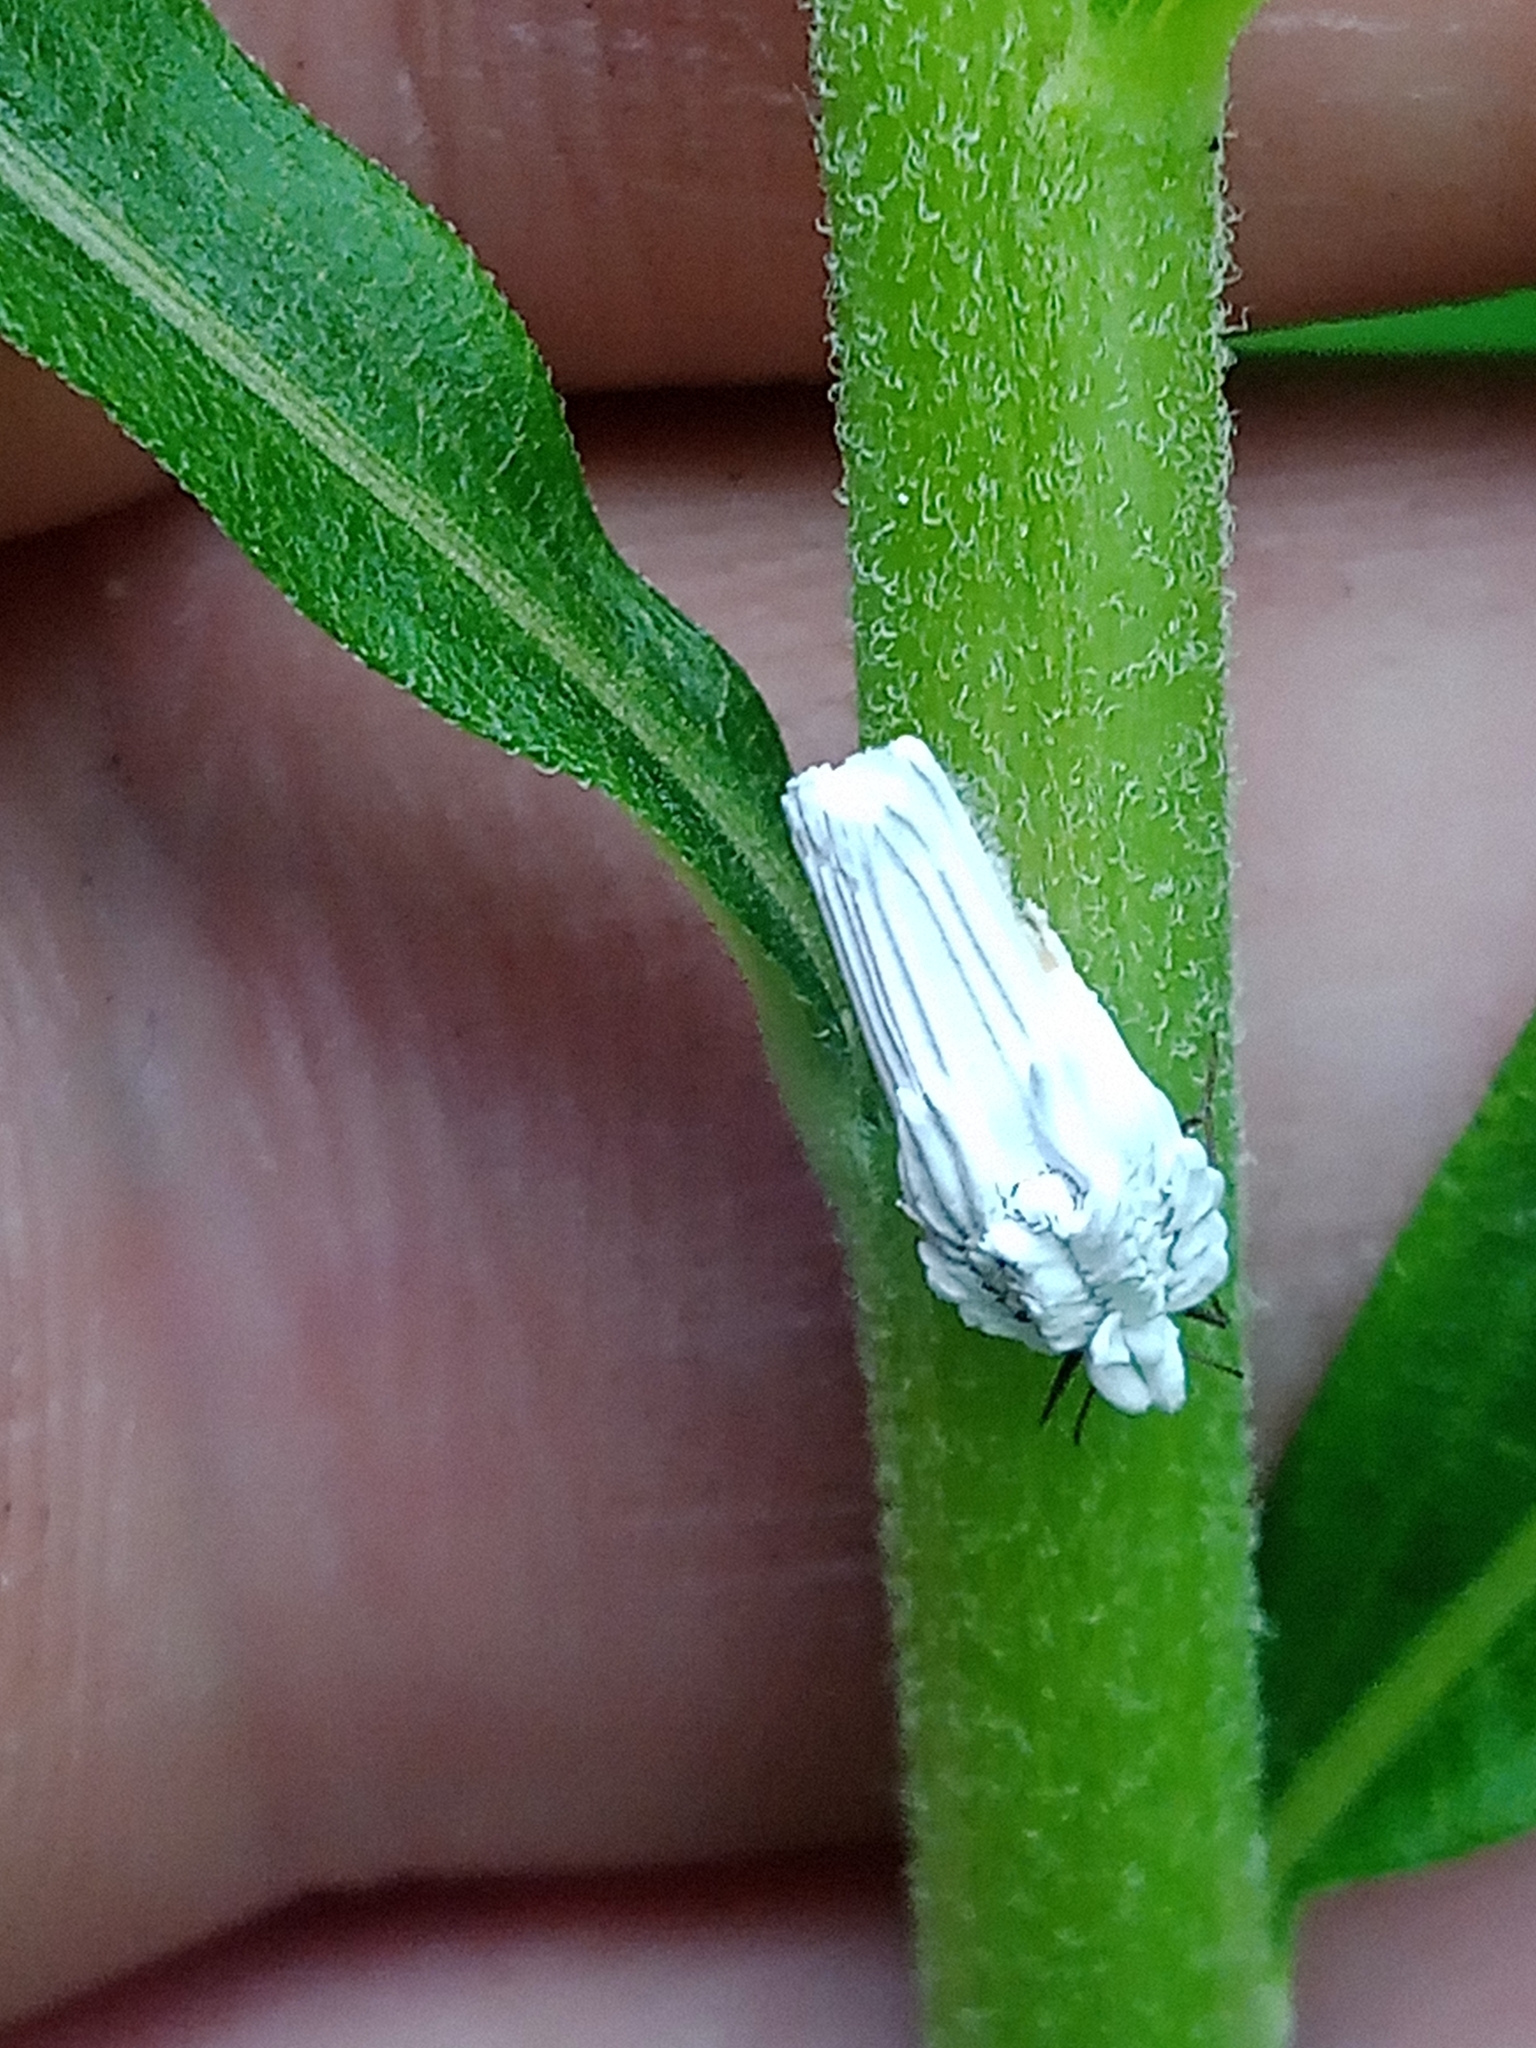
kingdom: Animalia
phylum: Arthropoda
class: Insecta
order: Hemiptera
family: Ortheziidae
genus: Orthezia
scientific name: Orthezia urticae
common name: Ensign coccid
